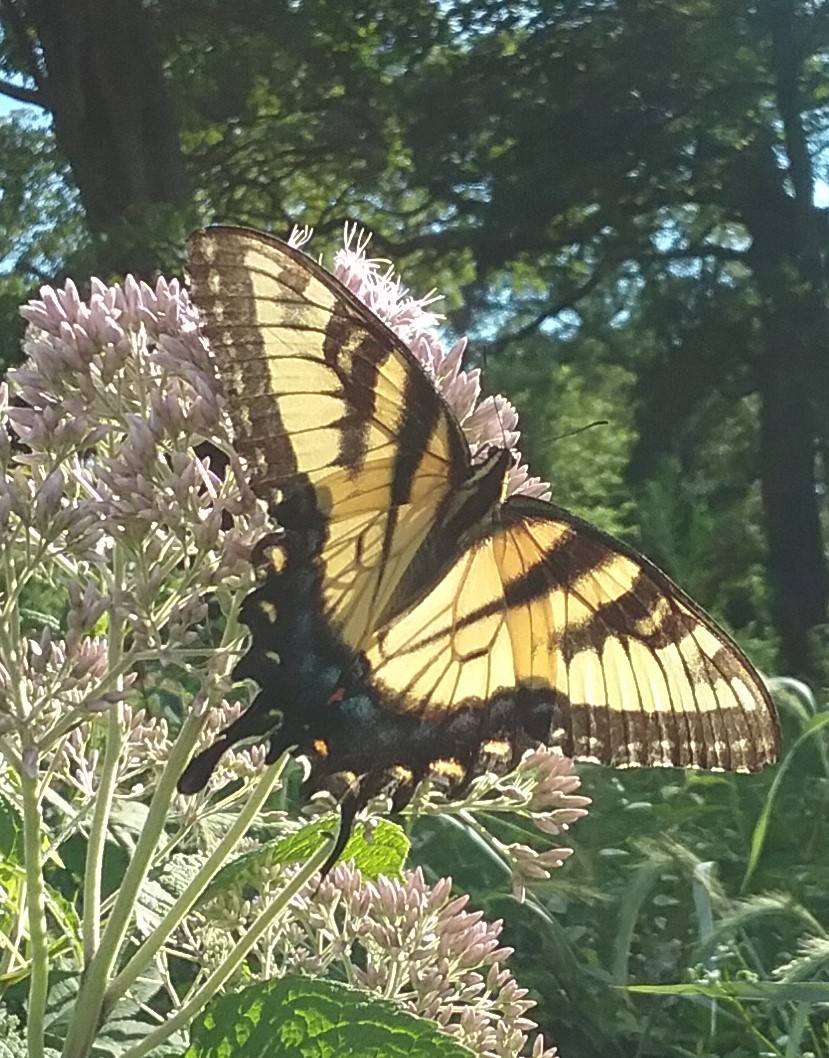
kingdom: Animalia
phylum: Arthropoda
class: Insecta
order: Lepidoptera
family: Papilionidae
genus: Papilio
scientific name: Papilio glaucus
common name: Tiger swallowtail
